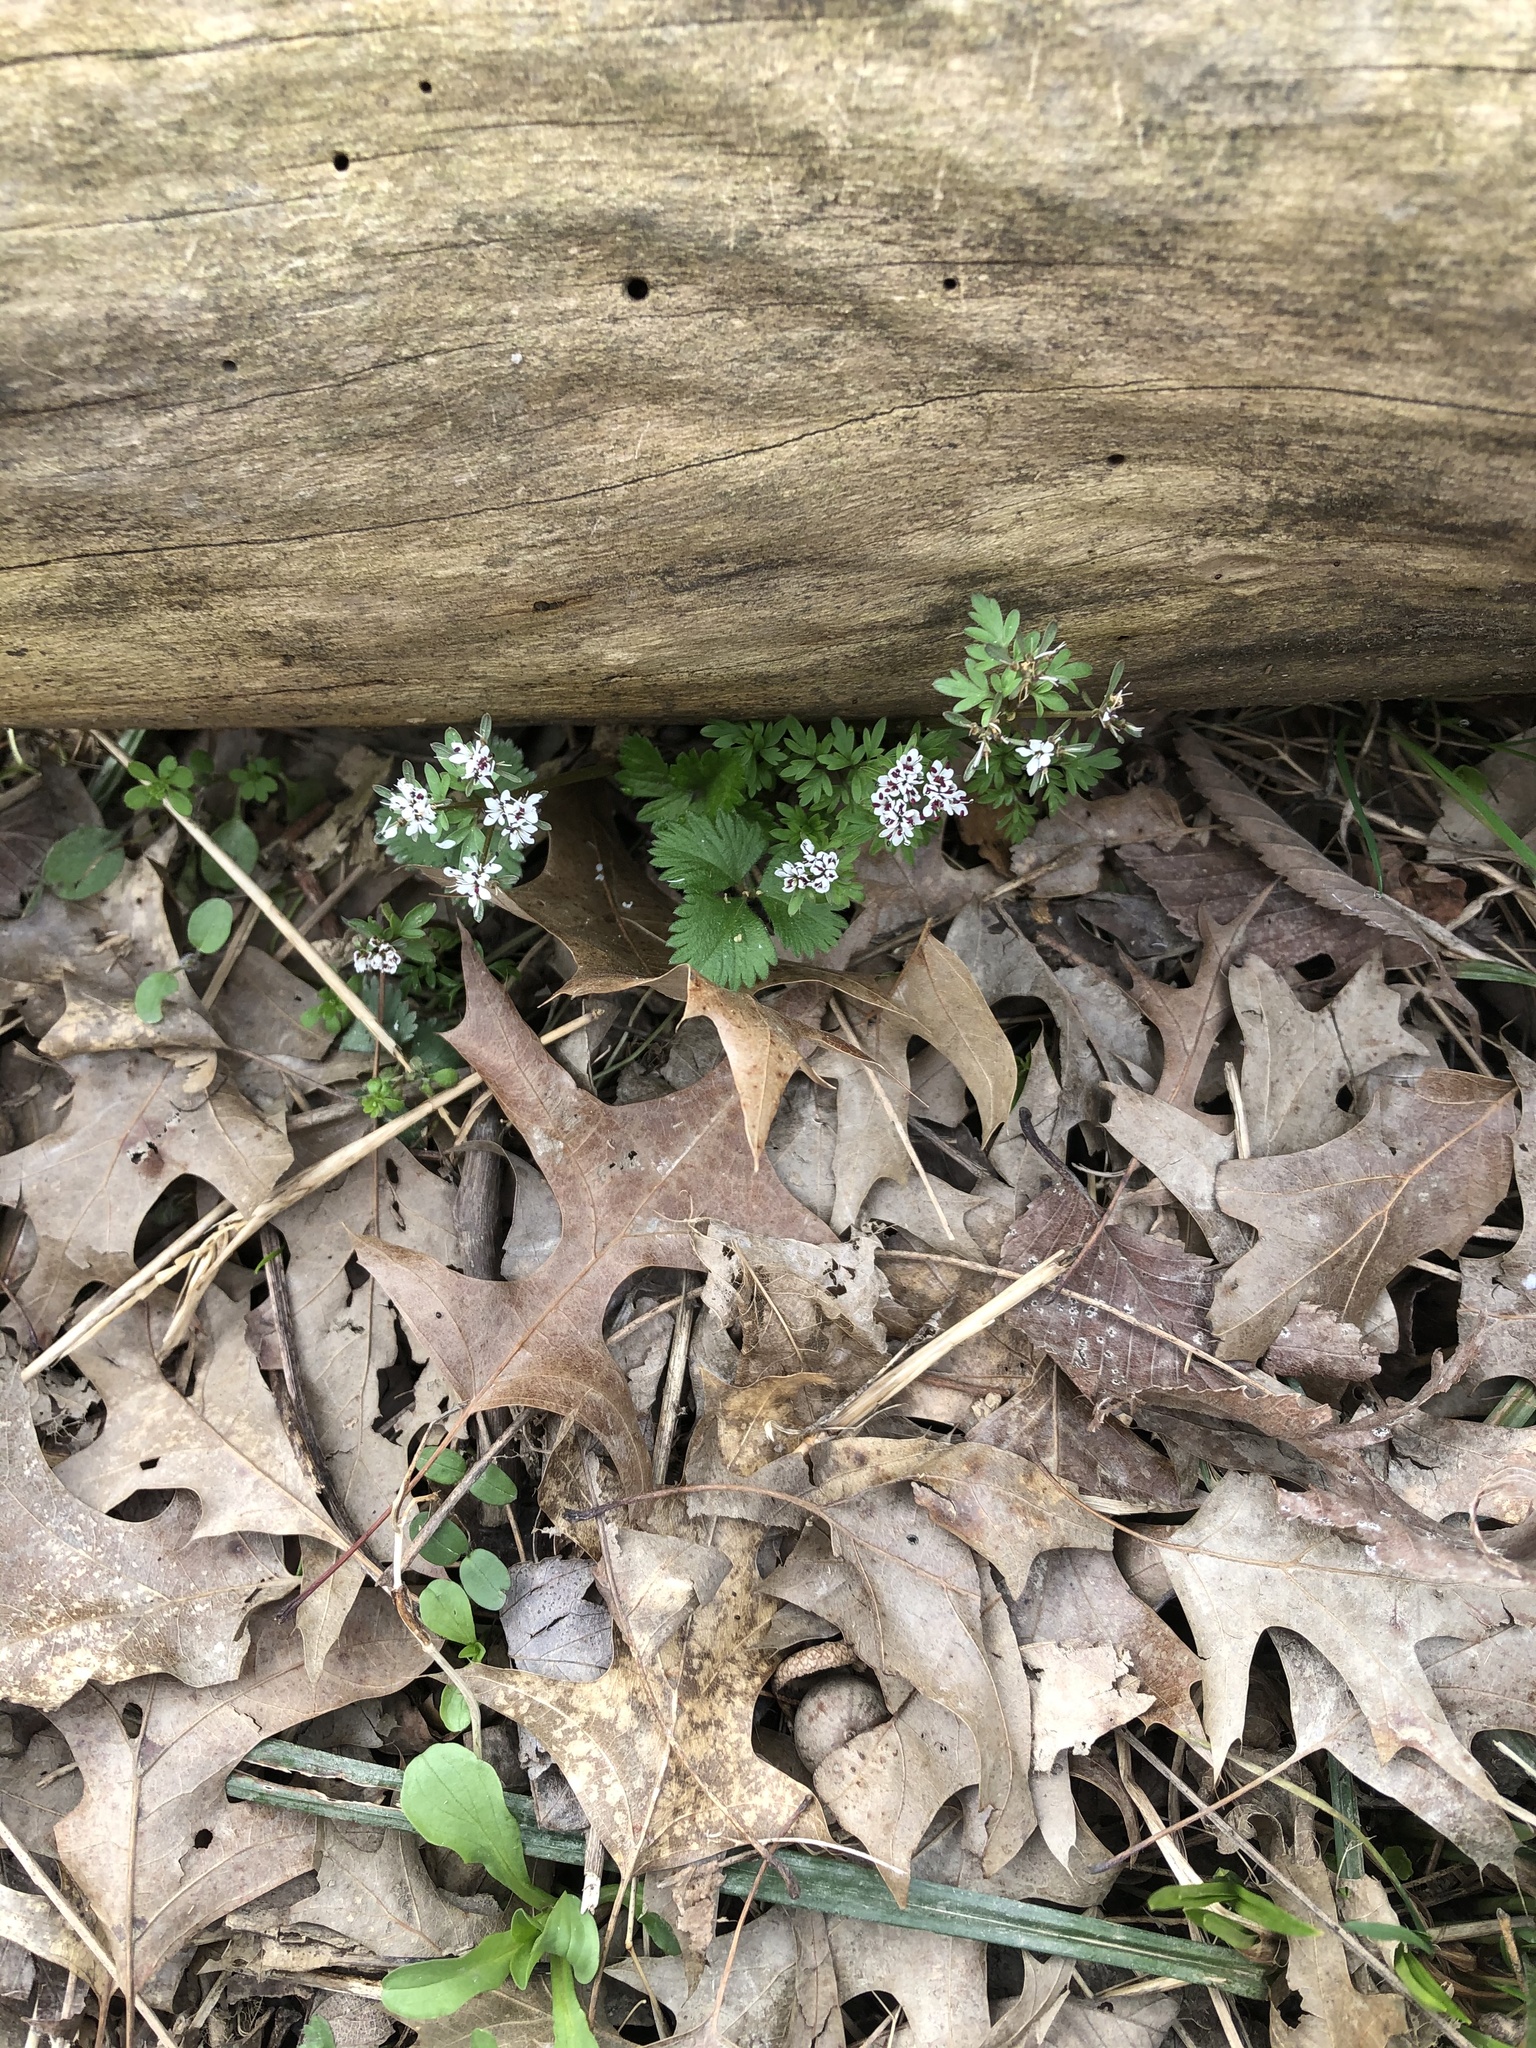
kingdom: Plantae
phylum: Tracheophyta
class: Magnoliopsida
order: Apiales
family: Apiaceae
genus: Erigenia
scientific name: Erigenia bulbosa
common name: Pepper-and-salt
